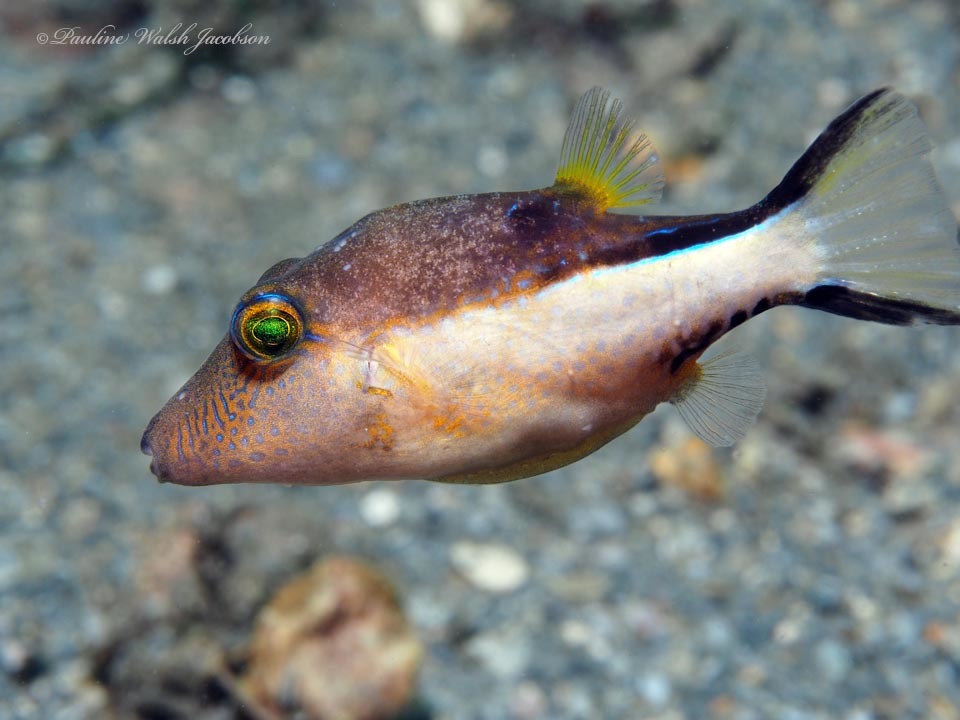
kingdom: Animalia
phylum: Chordata
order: Tetraodontiformes
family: Tetraodontidae
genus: Canthigaster
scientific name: Canthigaster rostrata
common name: Caribbean sharpnose-puffer
